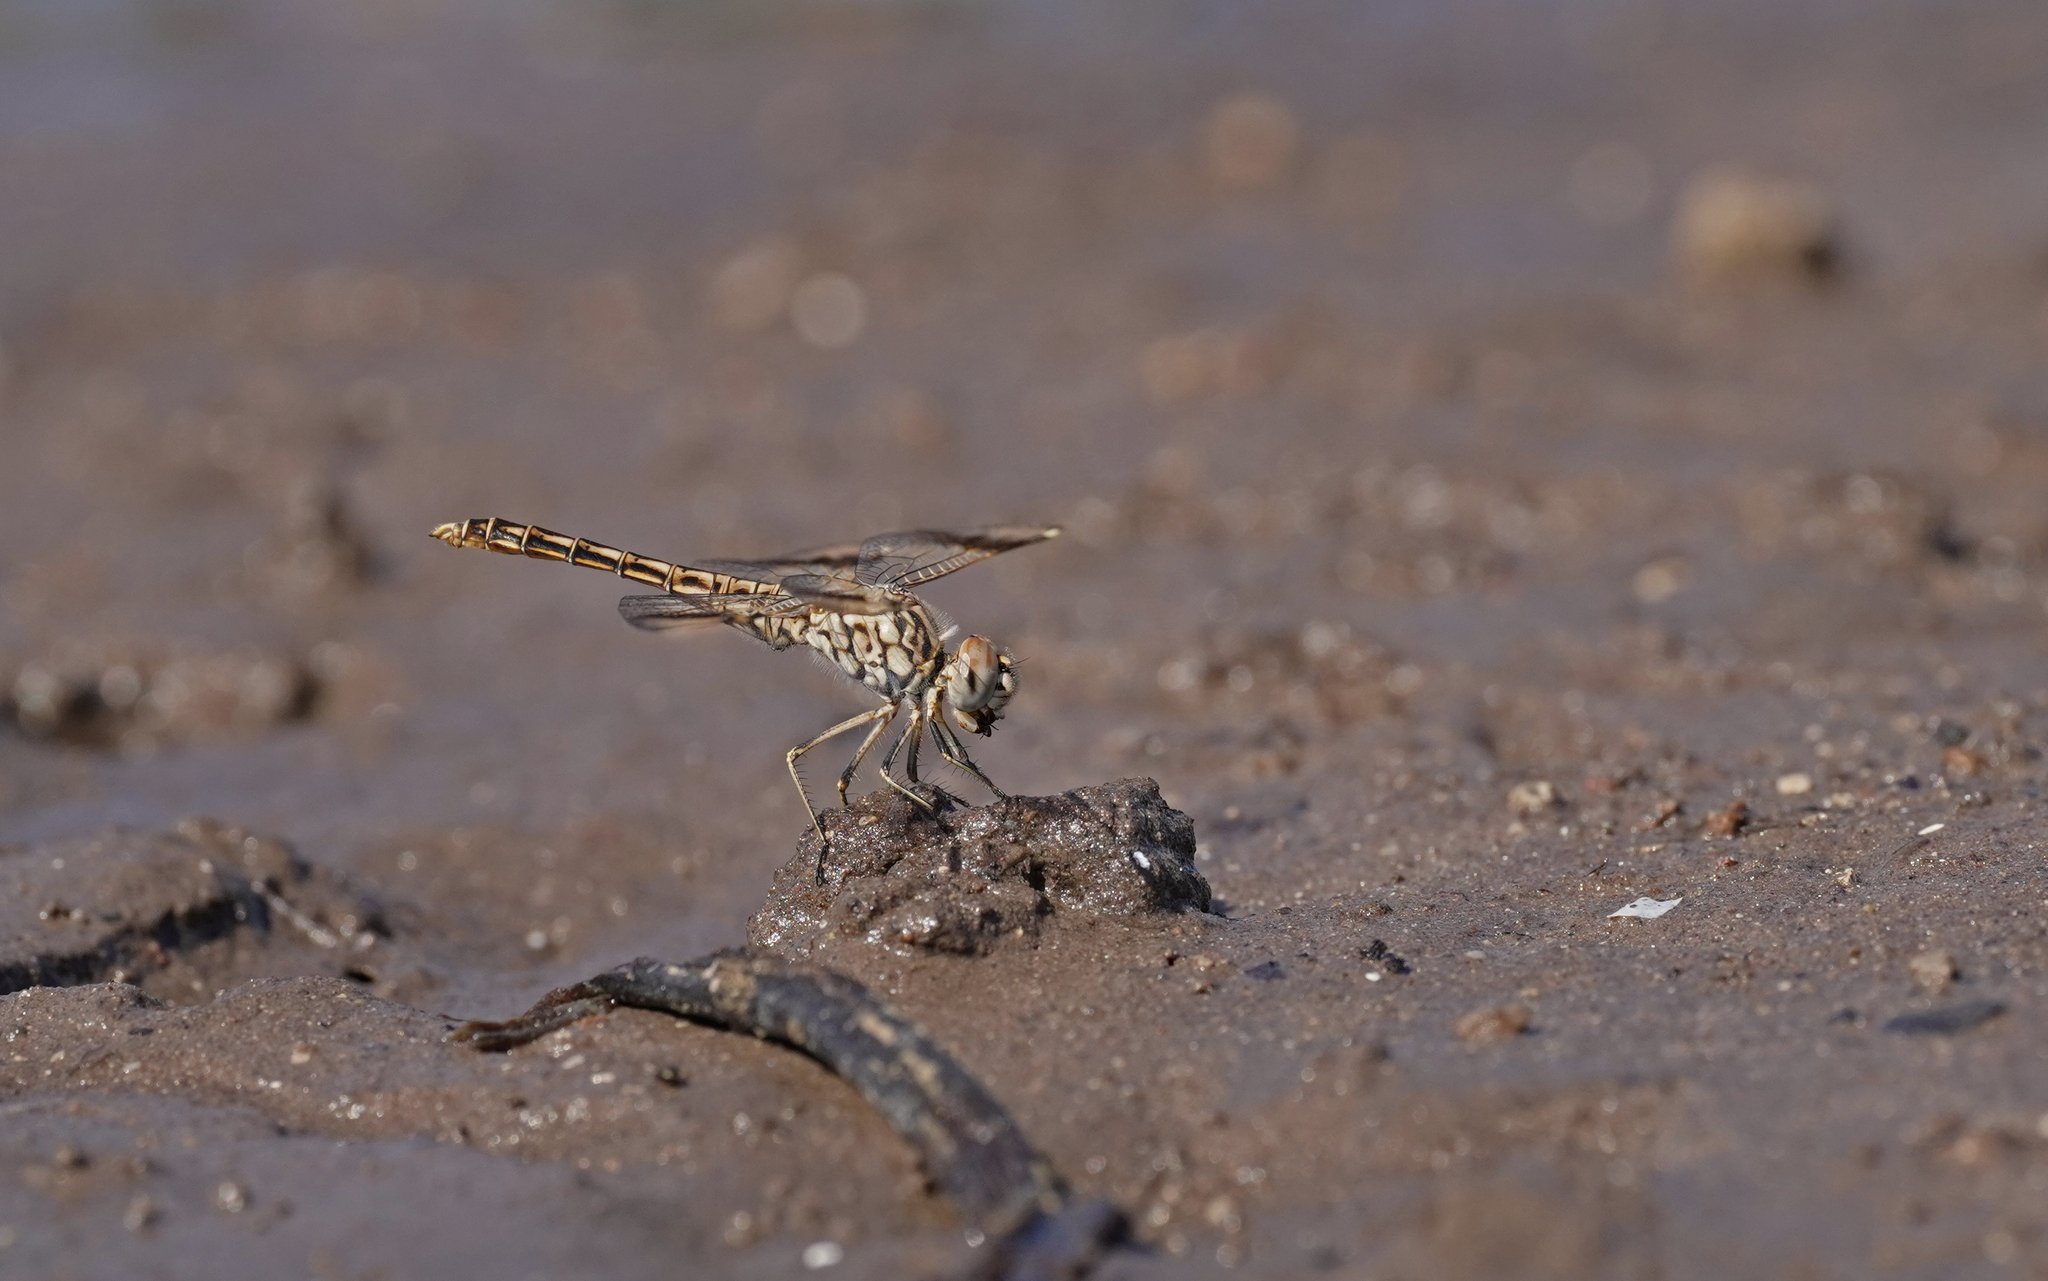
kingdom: Animalia
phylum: Arthropoda
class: Insecta
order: Odonata
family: Libellulidae
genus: Brachythemis
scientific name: Brachythemis impartita
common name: Banded groundling
